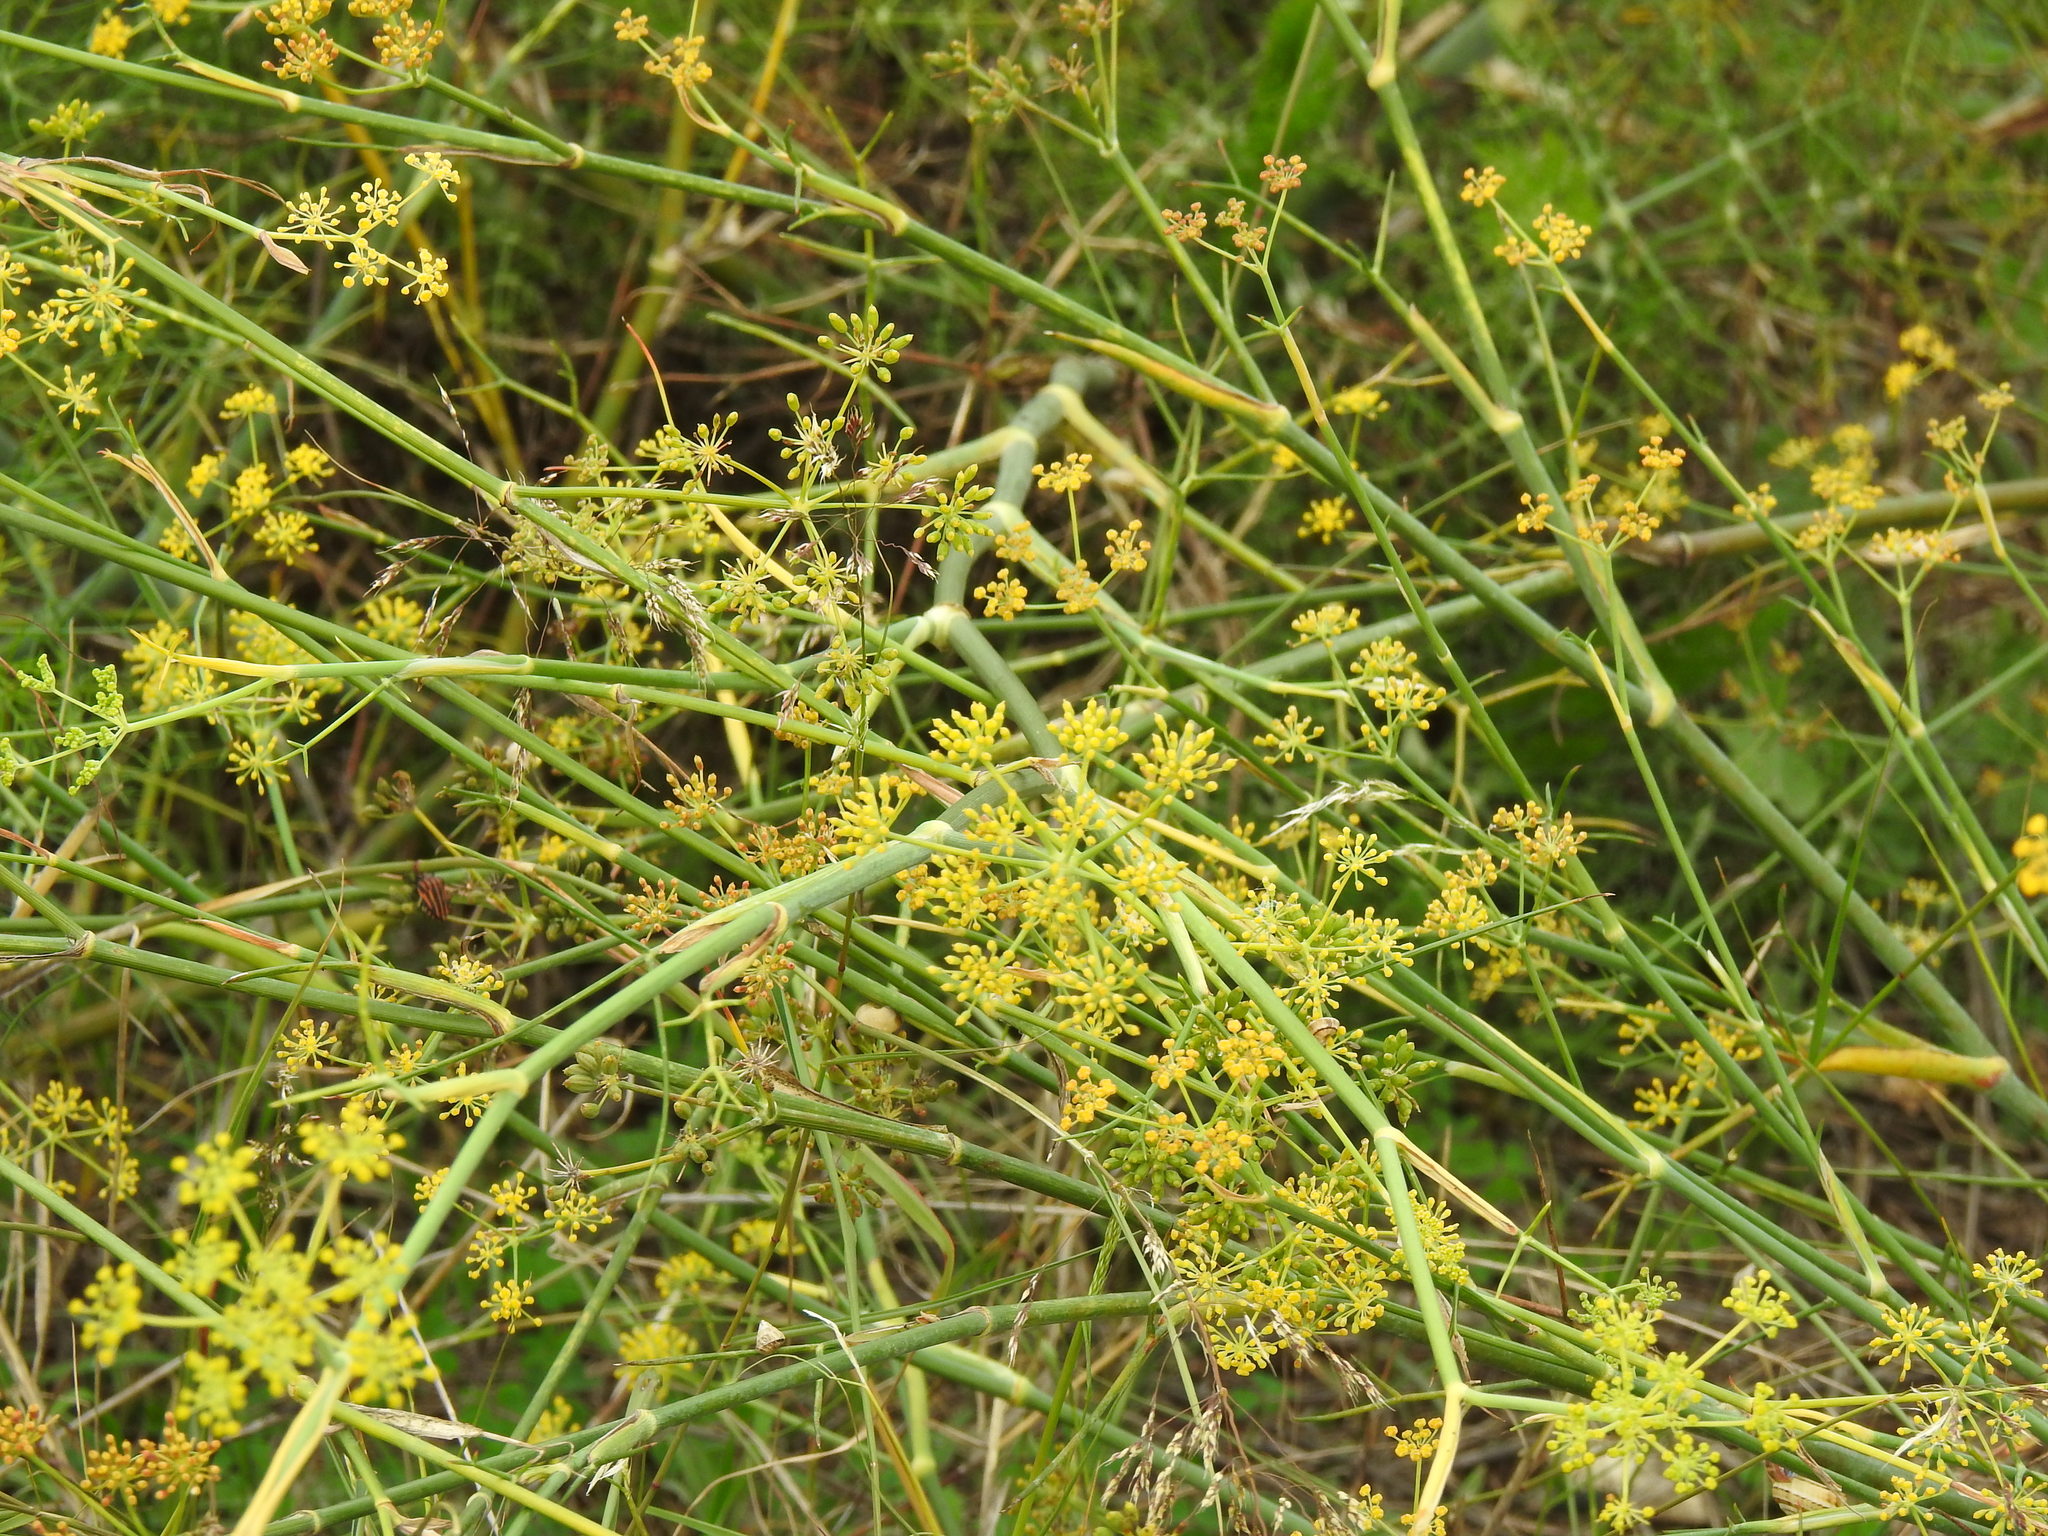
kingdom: Plantae
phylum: Tracheophyta
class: Magnoliopsida
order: Apiales
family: Apiaceae
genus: Foeniculum
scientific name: Foeniculum vulgare
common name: Fennel
